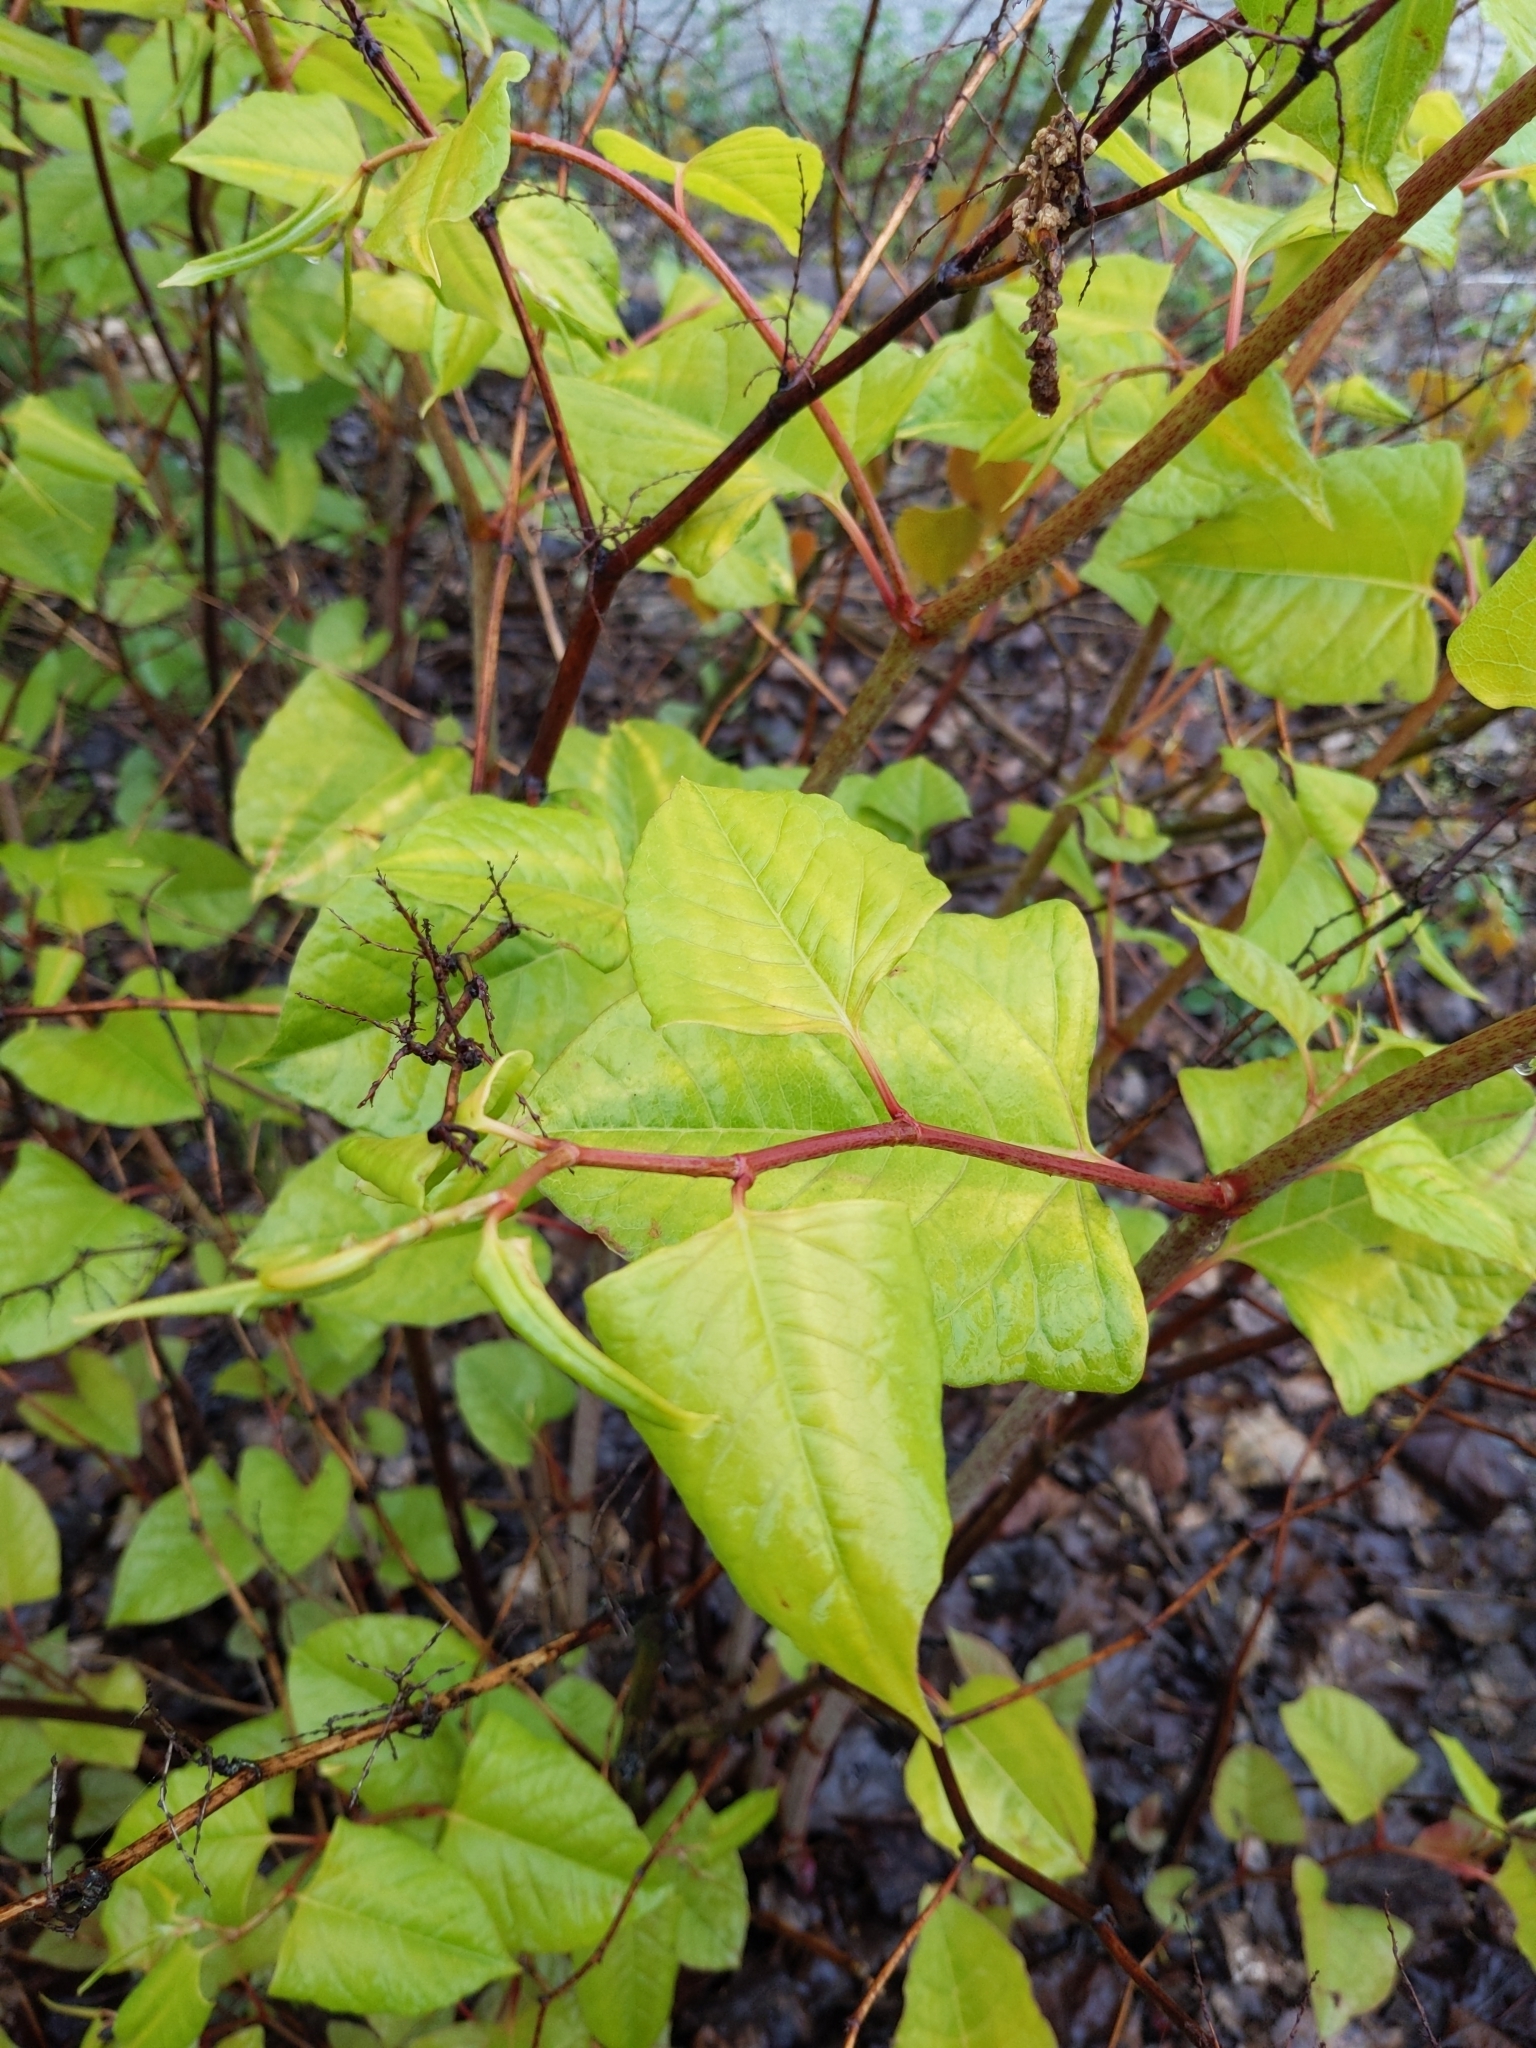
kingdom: Plantae
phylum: Tracheophyta
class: Magnoliopsida
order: Caryophyllales
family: Polygonaceae
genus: Reynoutria
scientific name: Reynoutria japonica
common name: Japanese knotweed
